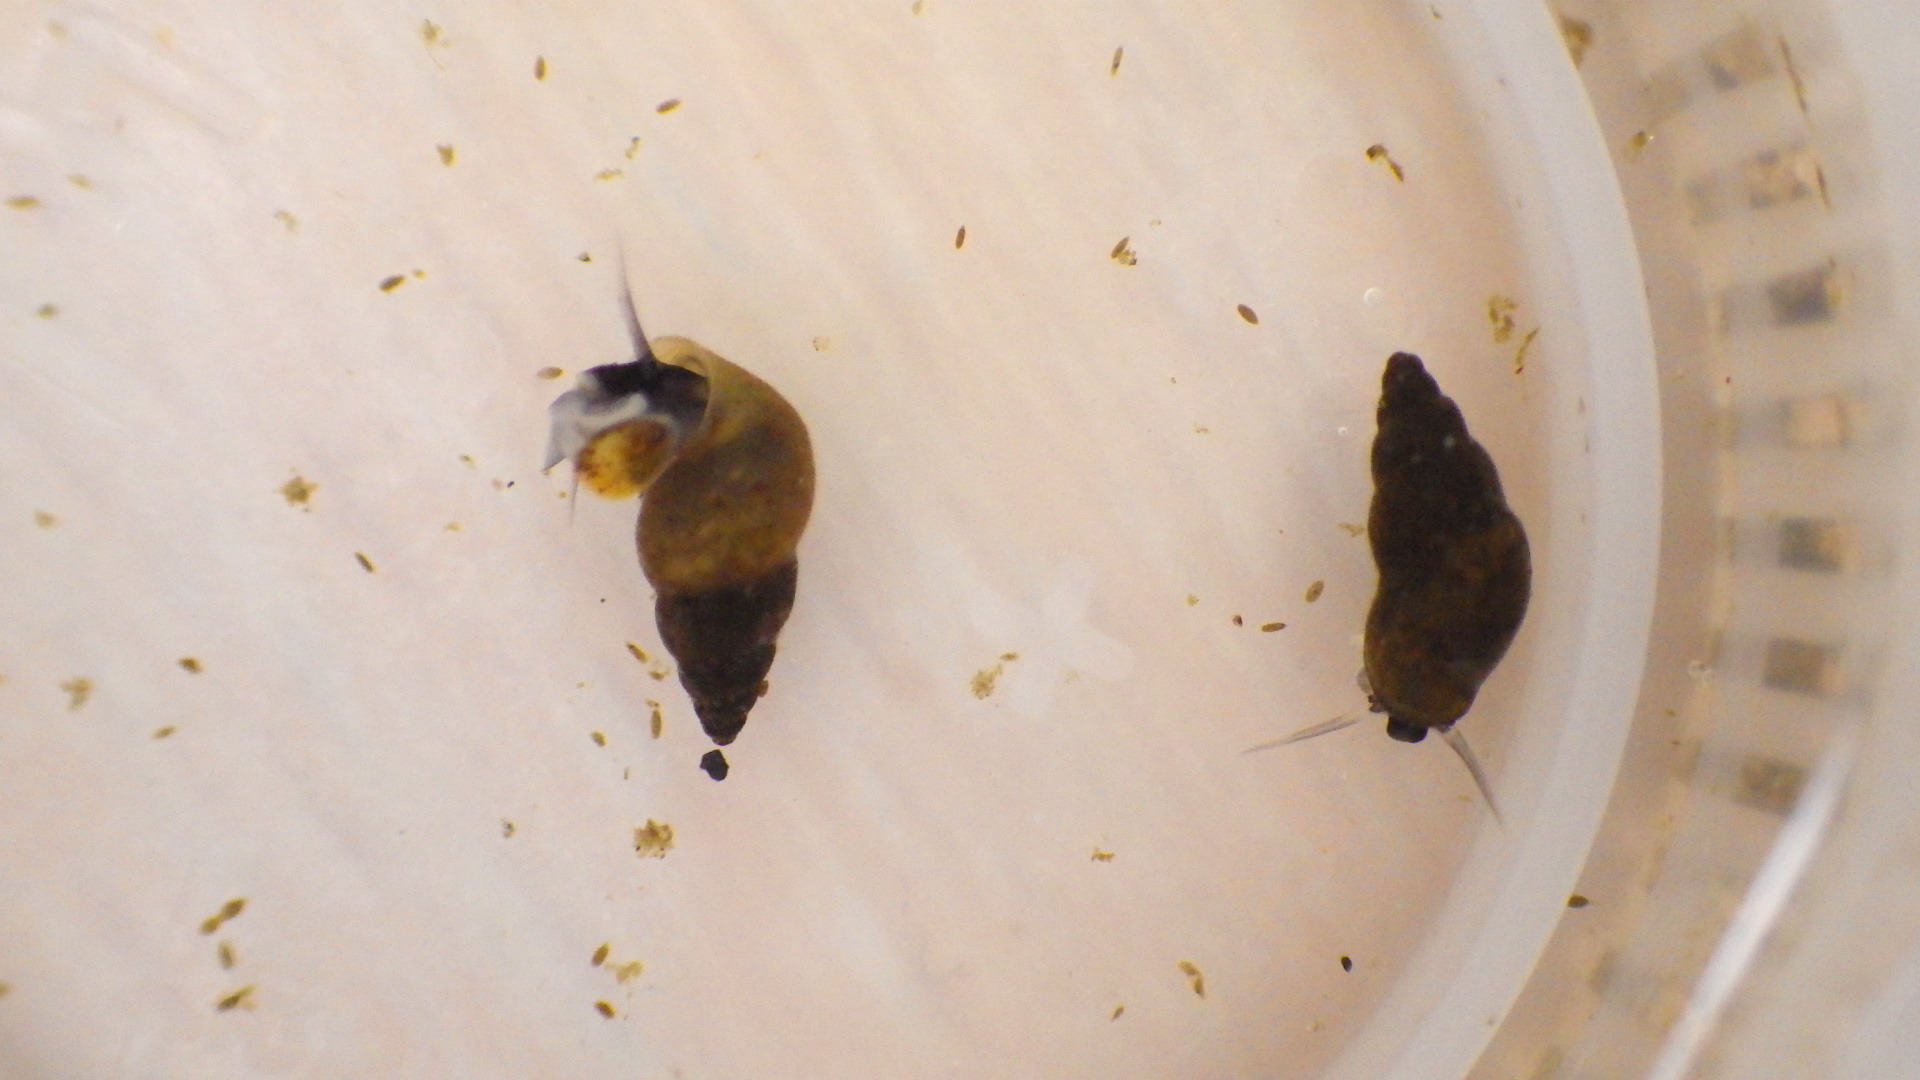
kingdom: Animalia
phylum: Mollusca
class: Gastropoda
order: Littorinimorpha
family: Tateidae
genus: Potamopyrgus
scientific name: Potamopyrgus antipodarum
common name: Jenkins' spire snail
